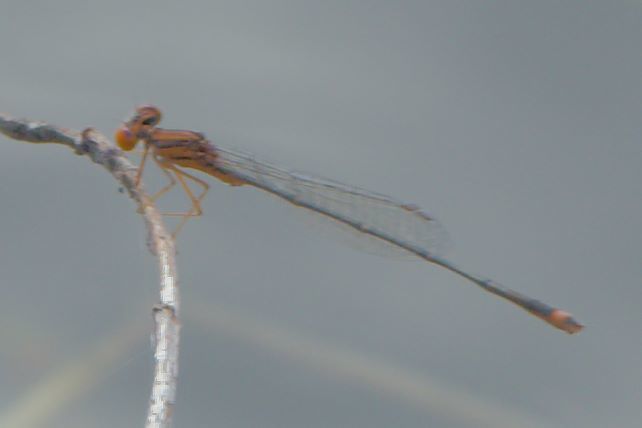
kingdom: Animalia
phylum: Arthropoda
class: Insecta
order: Odonata
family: Coenagrionidae
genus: Enallagma
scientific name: Enallagma pollutum
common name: Florida bluet
